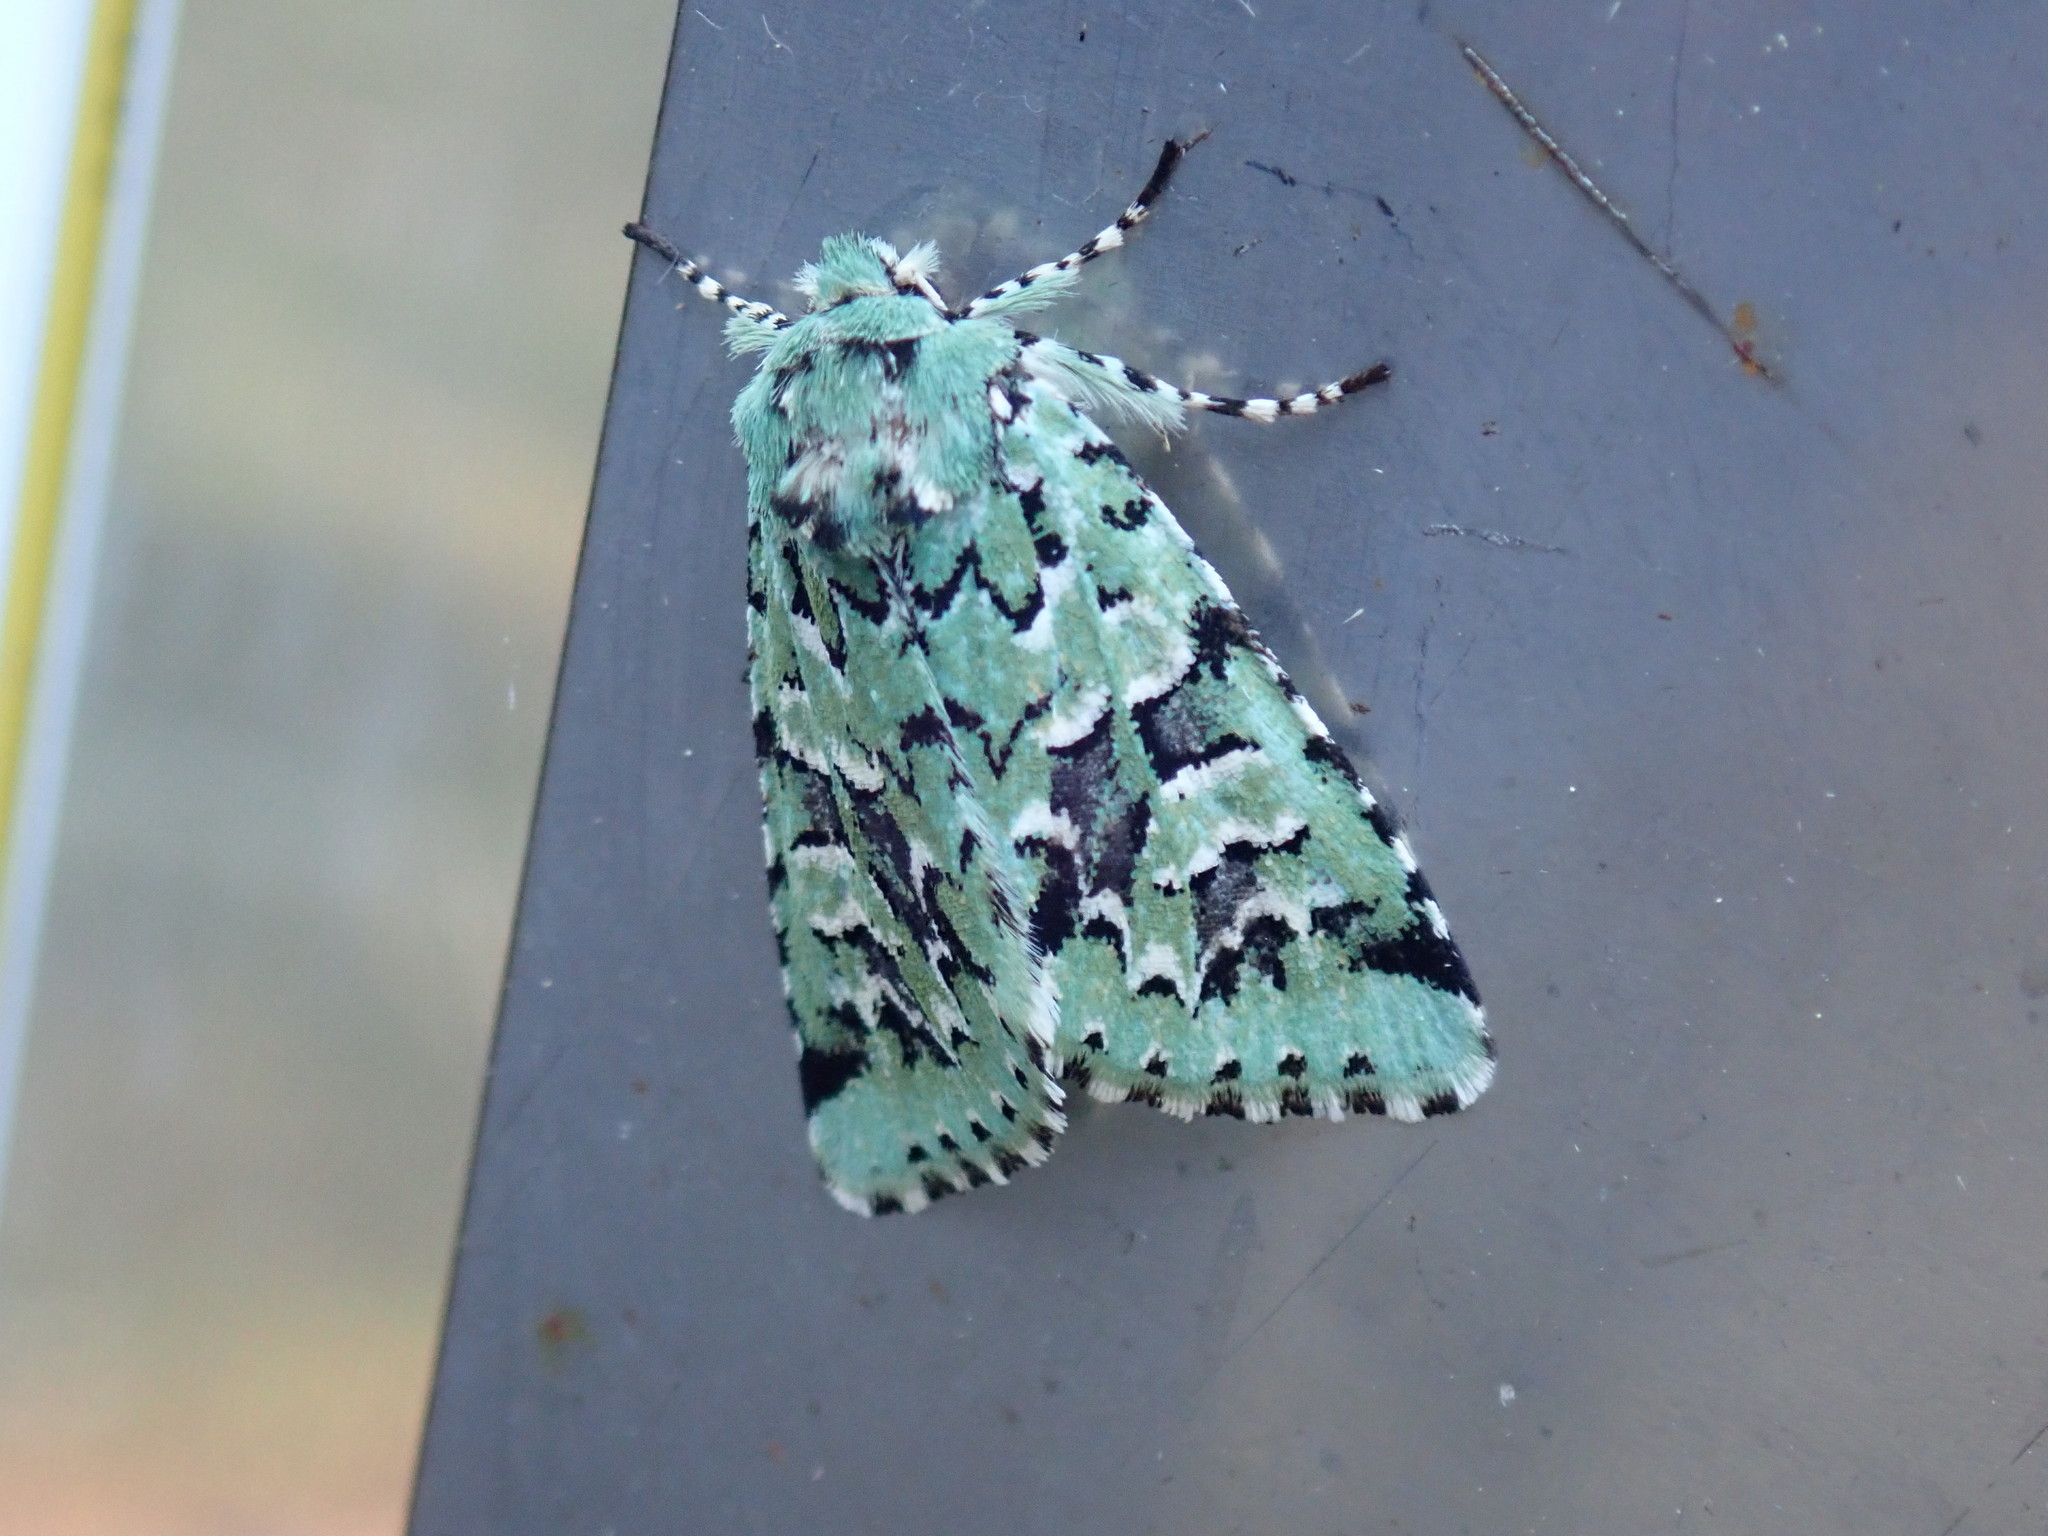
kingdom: Animalia
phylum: Arthropoda
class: Insecta
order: Lepidoptera
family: Noctuidae
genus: Feralia
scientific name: Feralia comstocki
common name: Comstock's sallow
